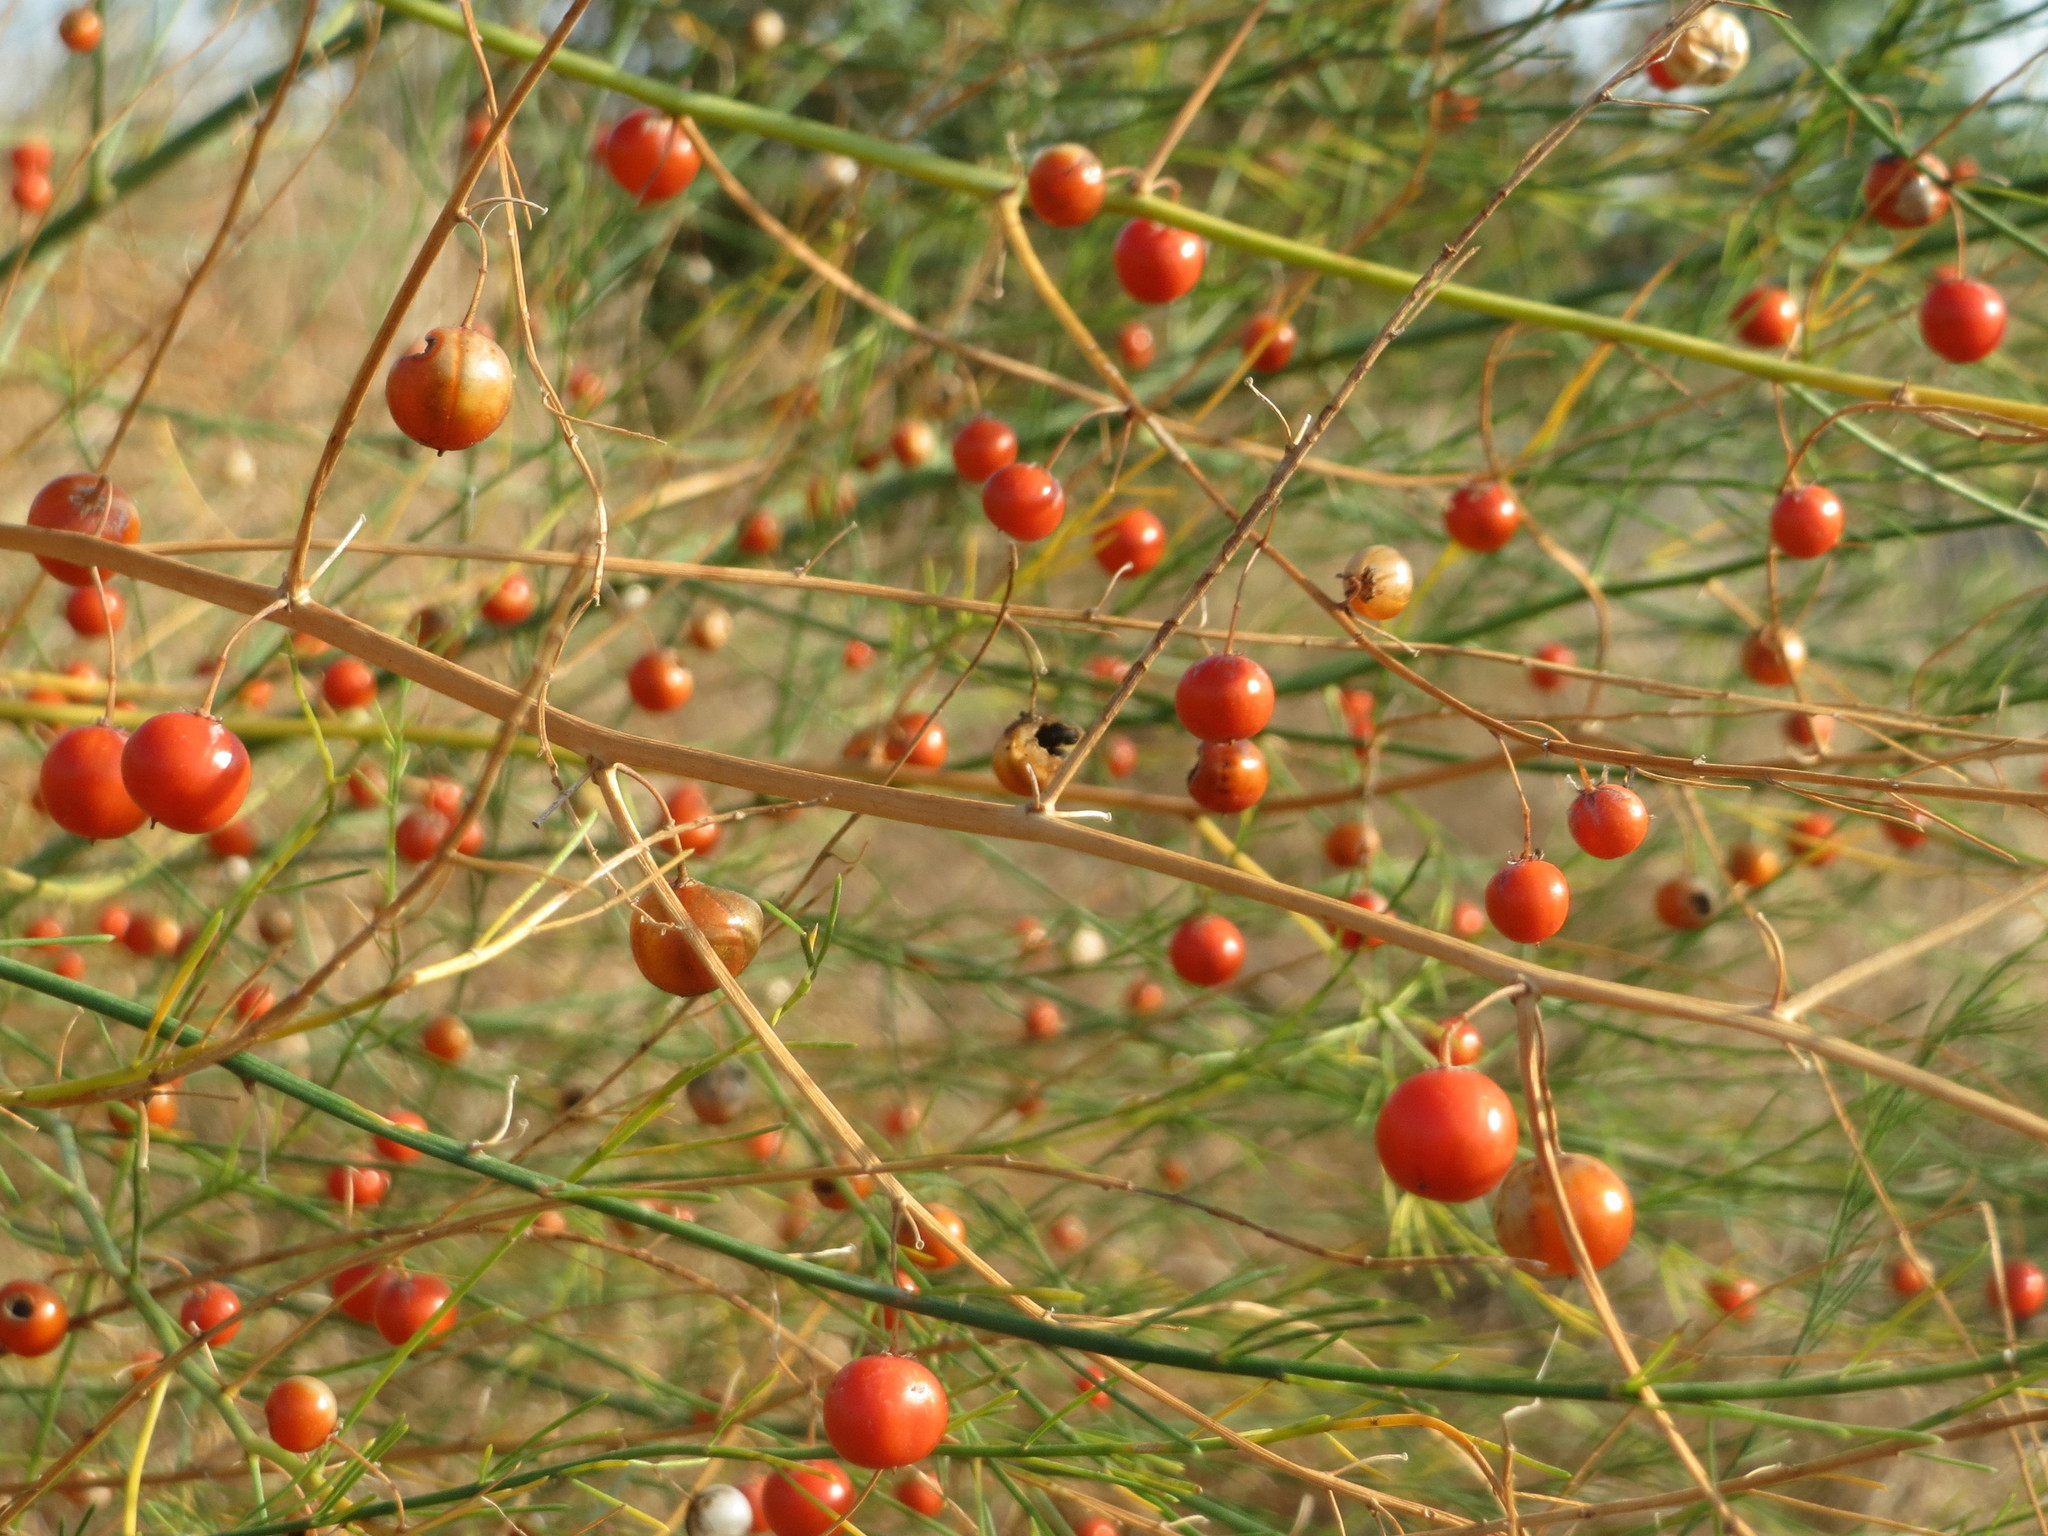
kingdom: Plantae
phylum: Tracheophyta
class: Liliopsida
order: Asparagales
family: Asparagaceae
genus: Asparagus
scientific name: Asparagus officinalis
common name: Garden asparagus
